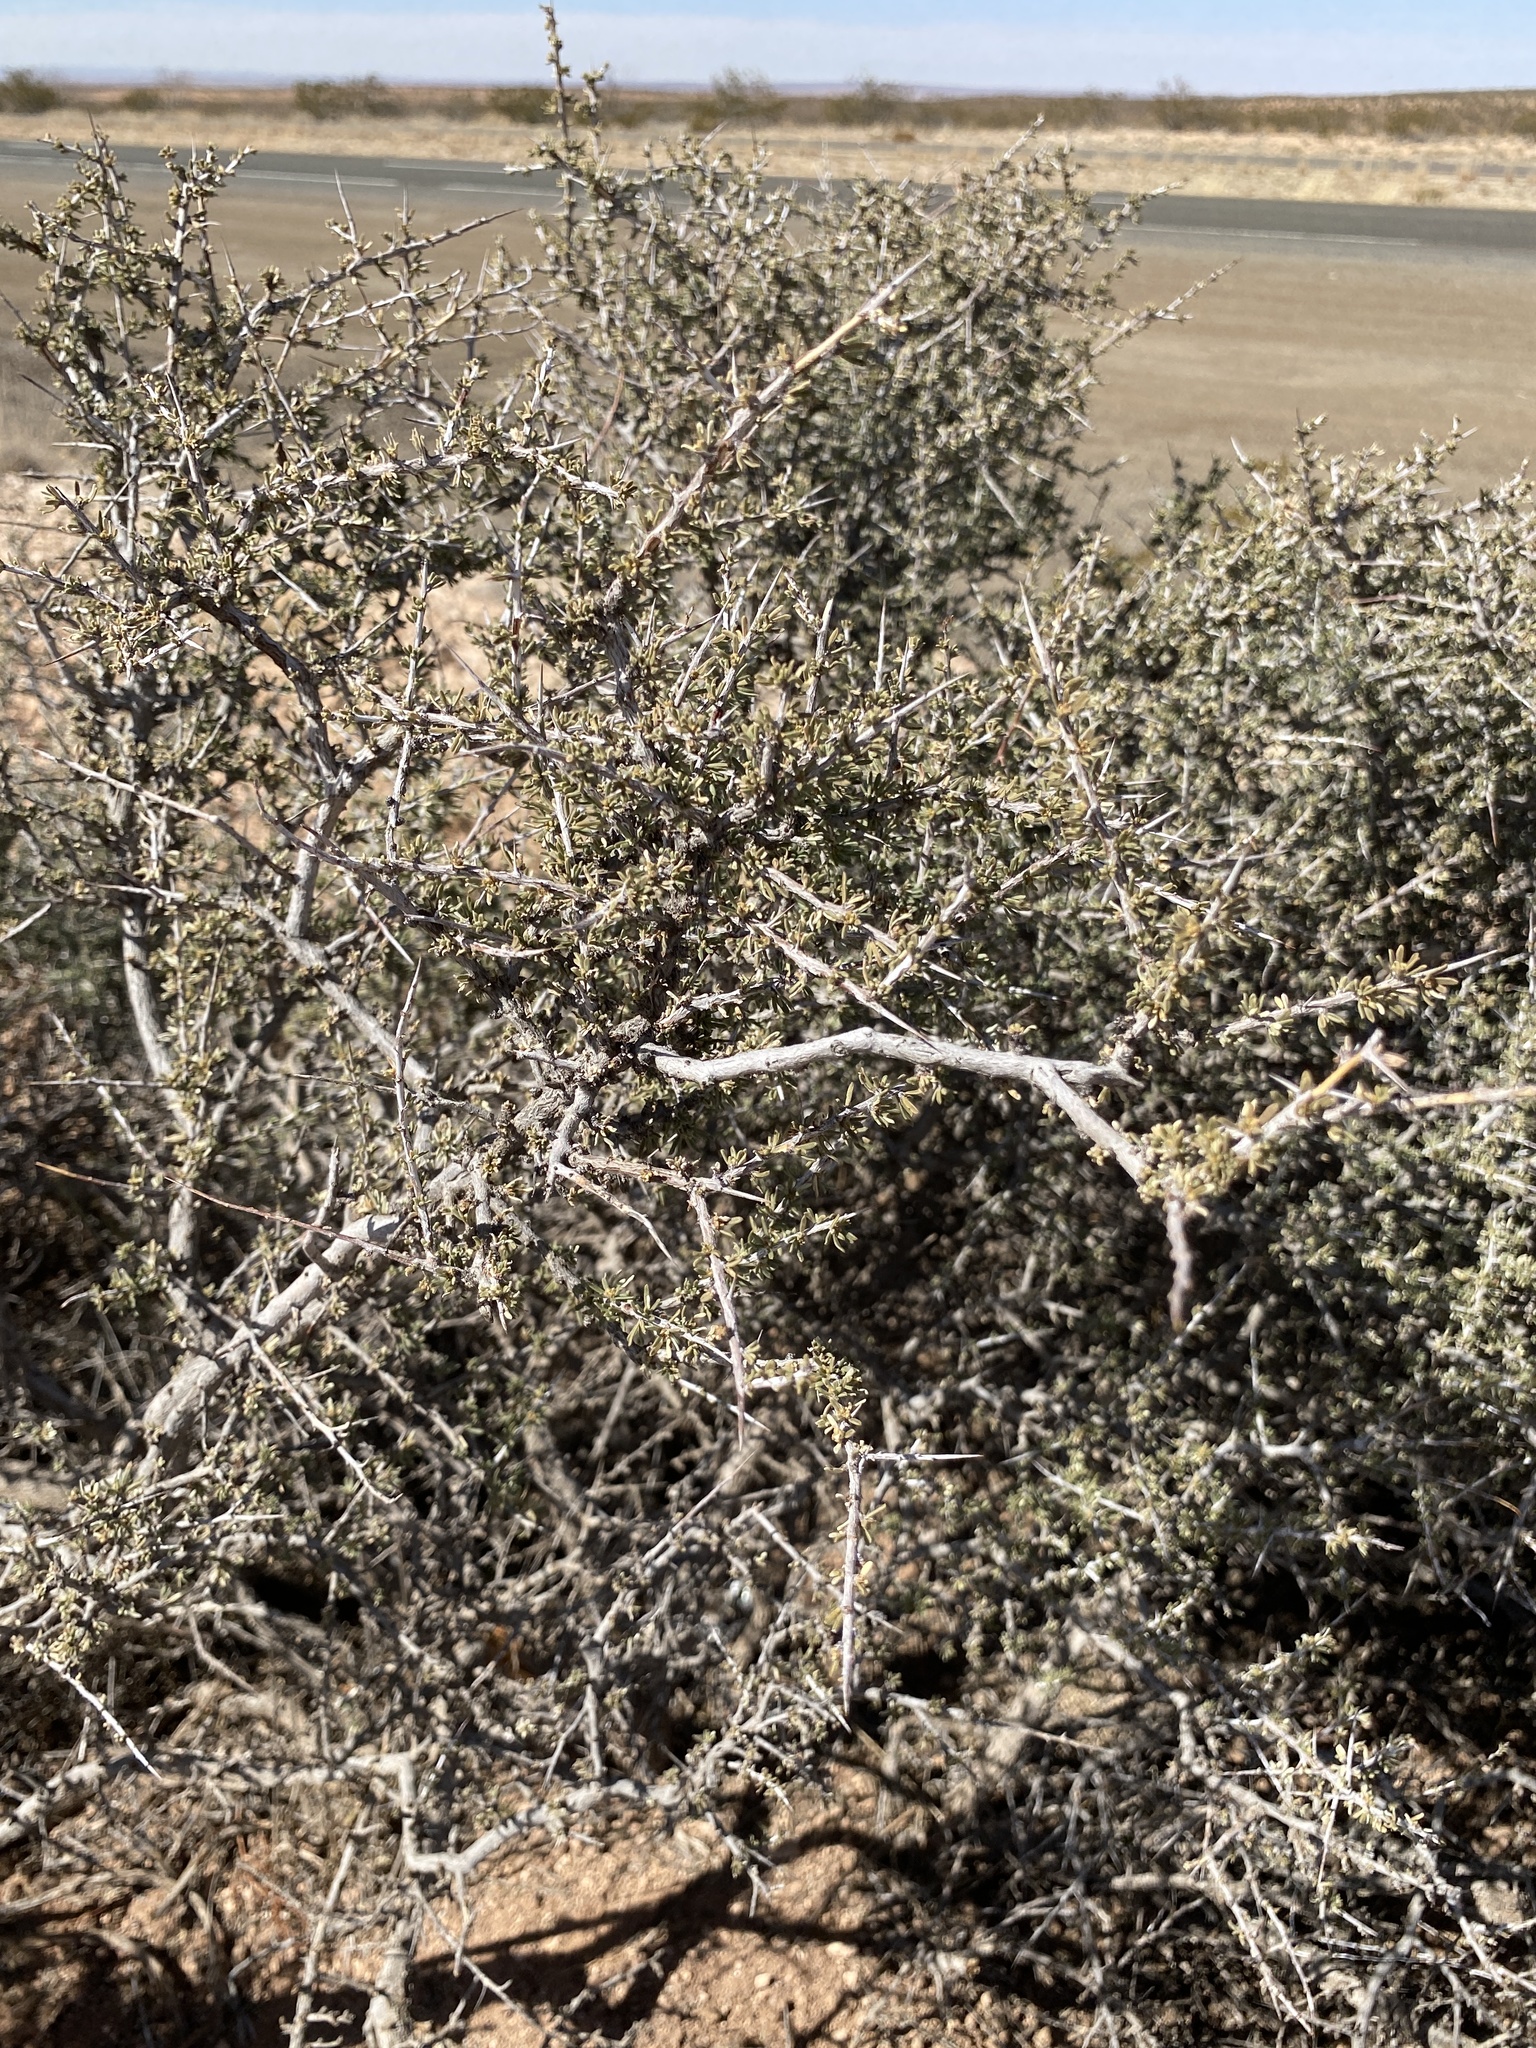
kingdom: Plantae
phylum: Tracheophyta
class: Magnoliopsida
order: Rosales
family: Rhamnaceae
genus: Condalia
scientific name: Condalia ericoides
